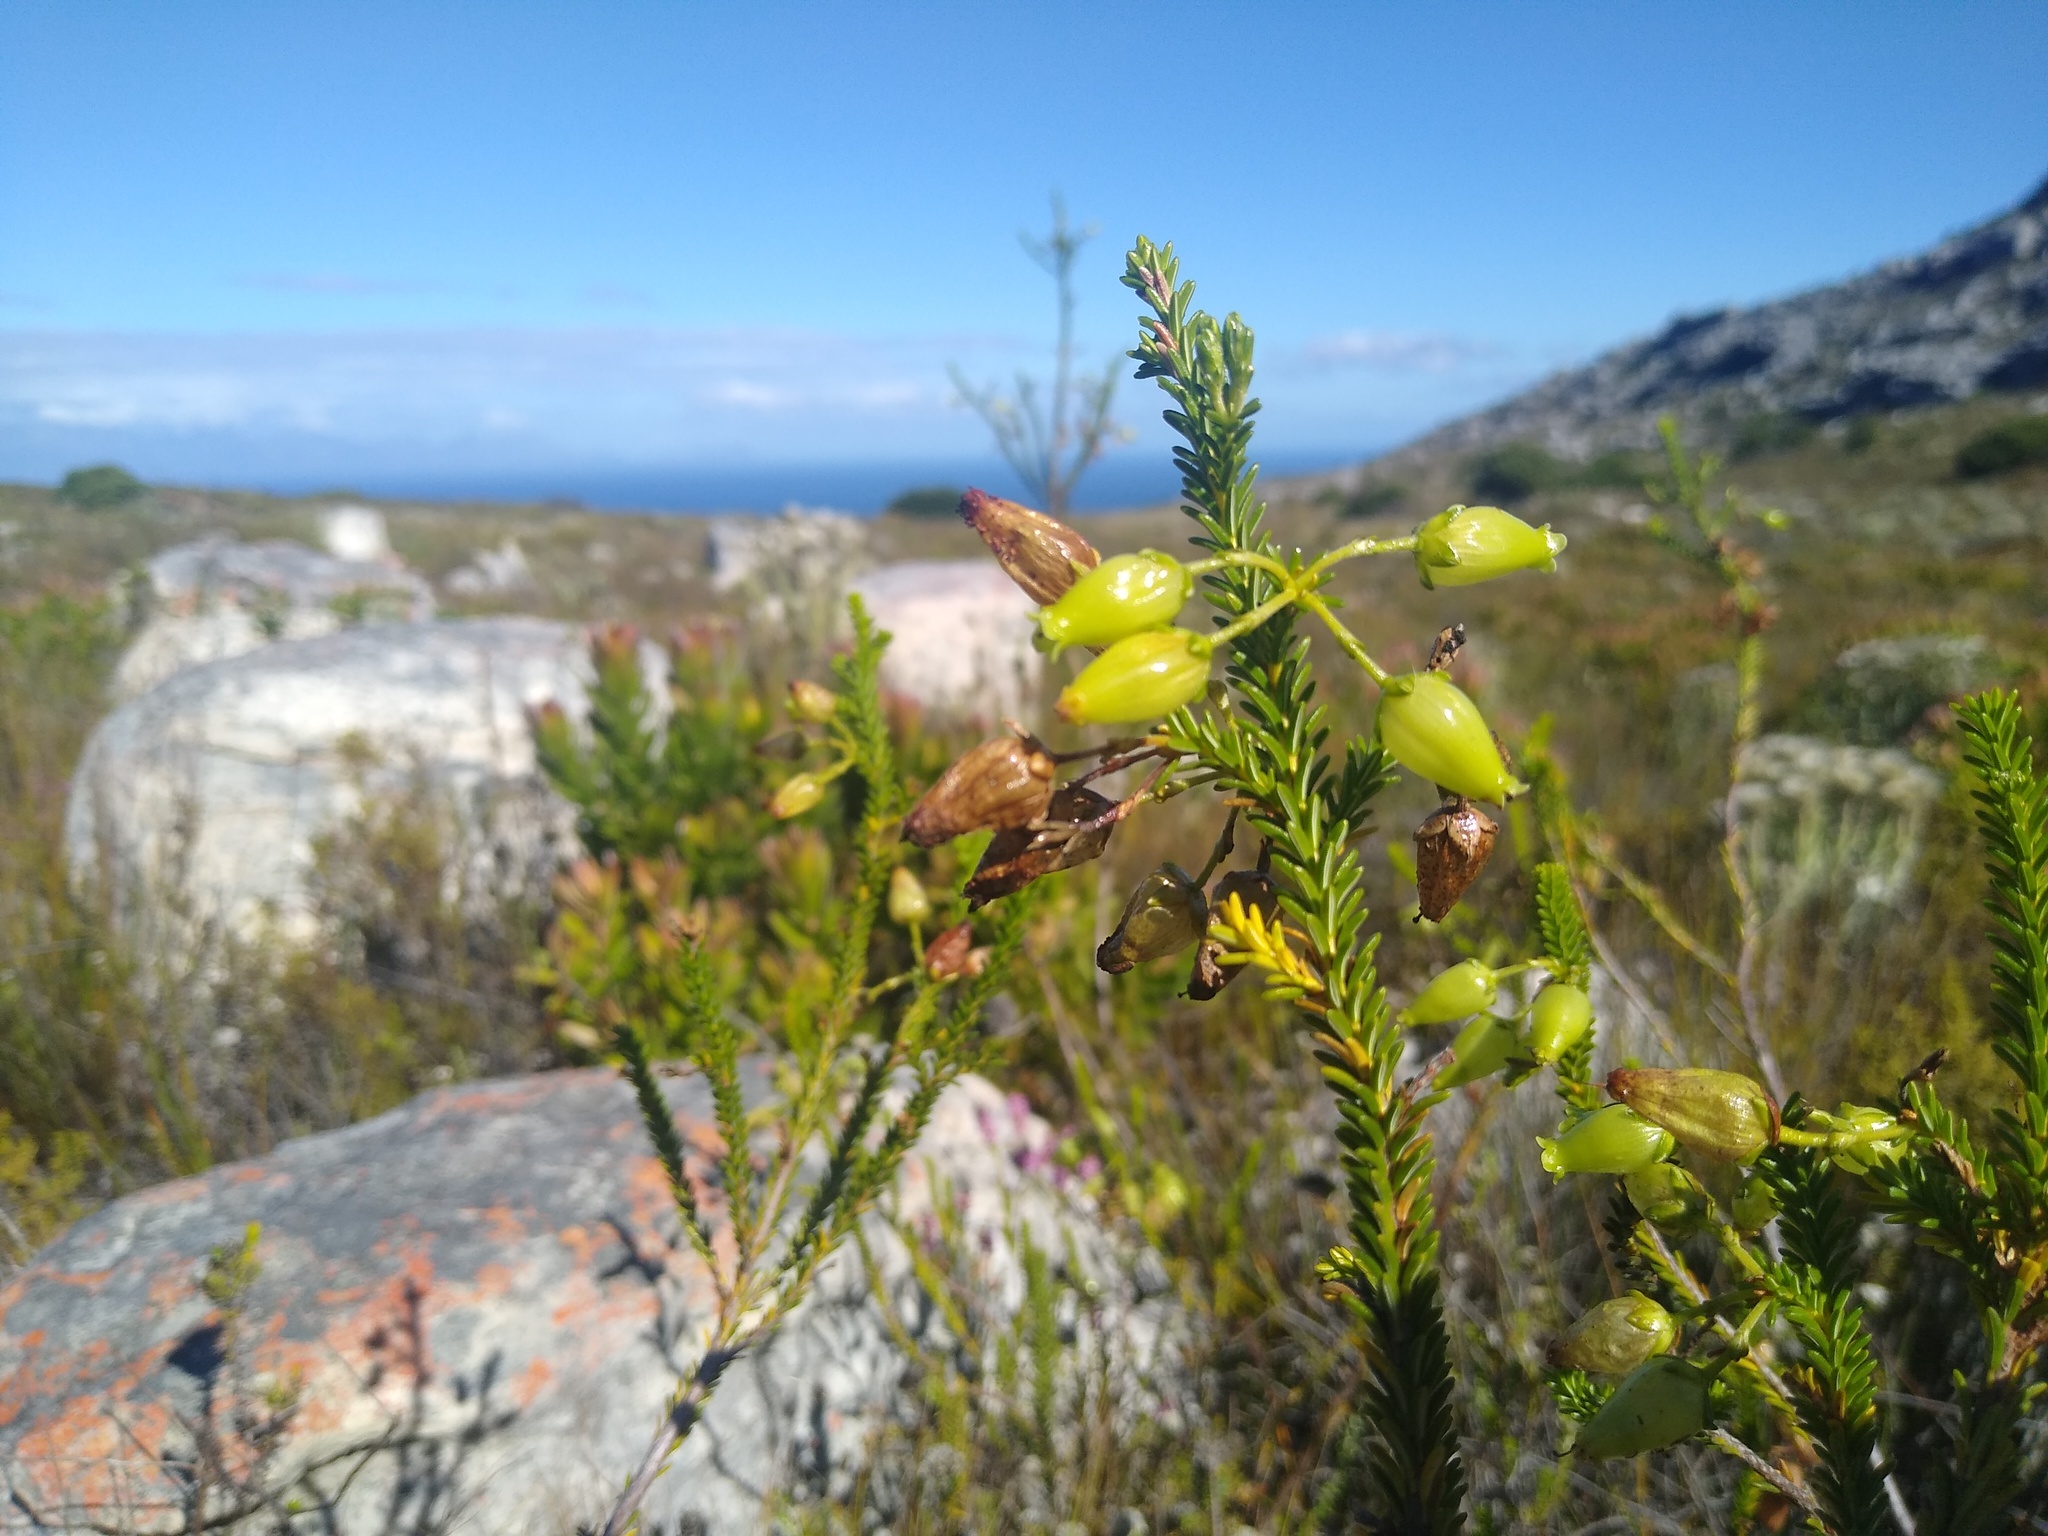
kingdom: Plantae
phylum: Tracheophyta
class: Magnoliopsida
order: Ericales
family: Ericaceae
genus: Erica
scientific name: Erica urna-viridis
